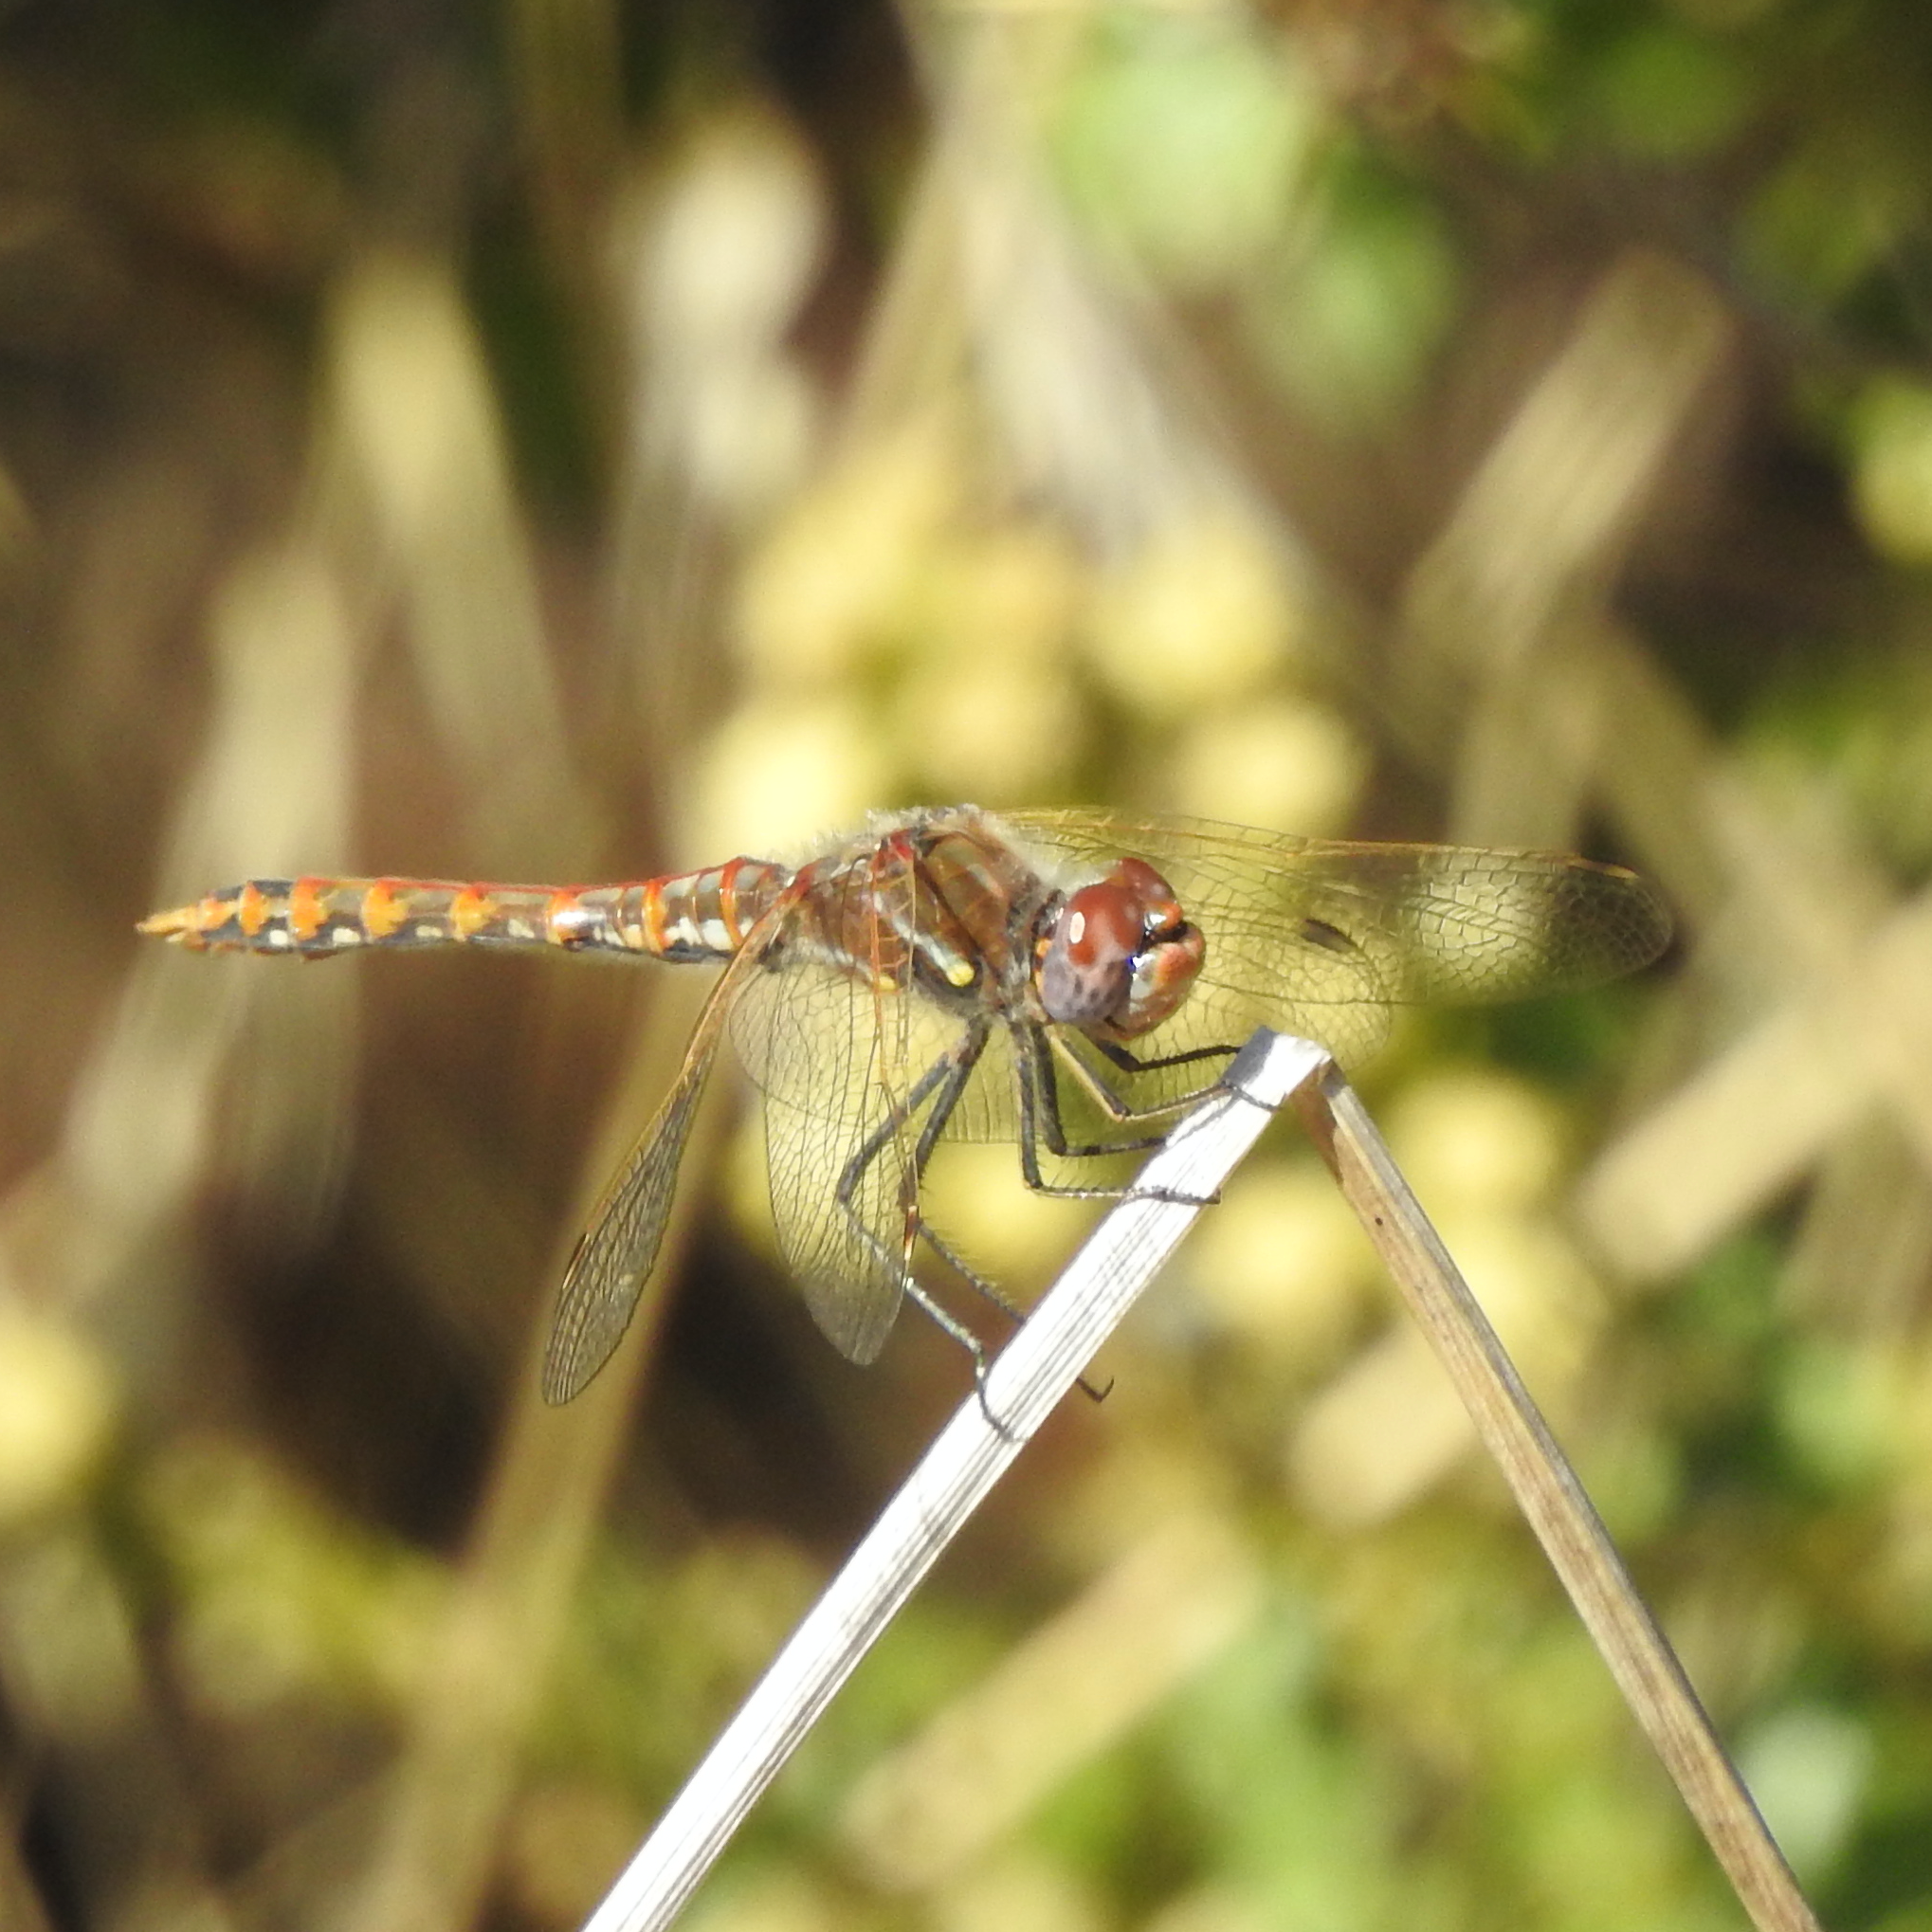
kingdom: Animalia
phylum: Arthropoda
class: Insecta
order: Odonata
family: Libellulidae
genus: Sympetrum
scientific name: Sympetrum corruptum
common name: Variegated meadowhawk
